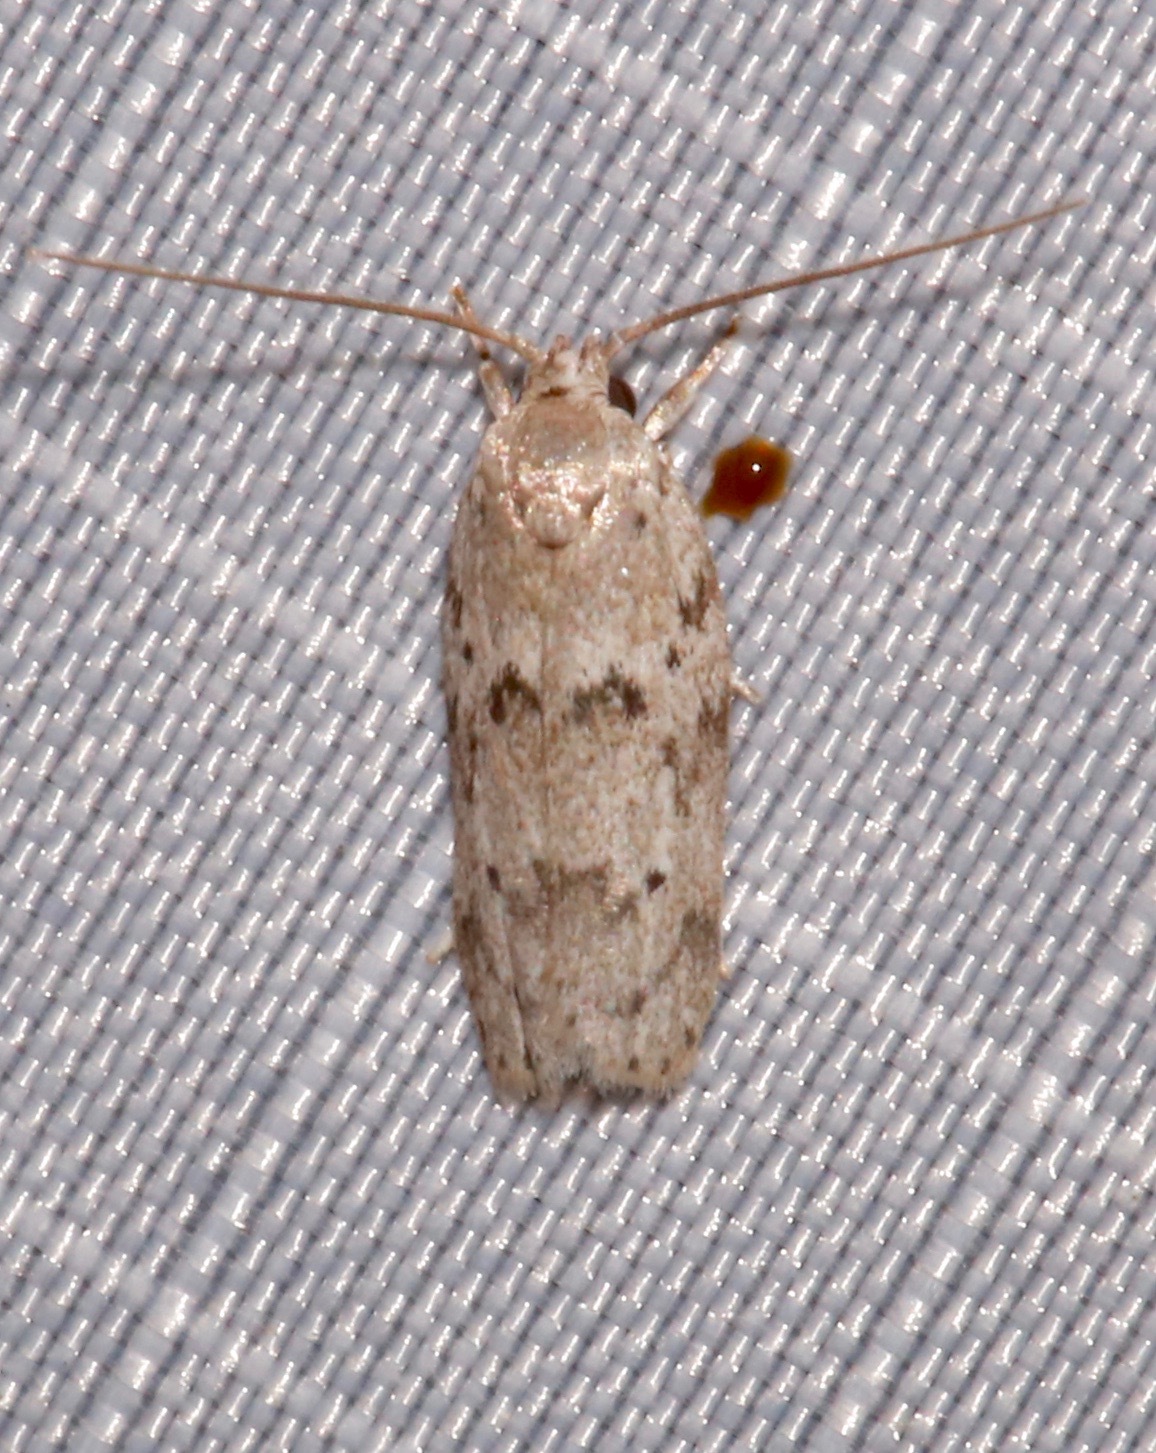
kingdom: Animalia
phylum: Arthropoda
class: Insecta
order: Lepidoptera
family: Depressariidae
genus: Antaeotricha
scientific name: Antaeotricha humilis
